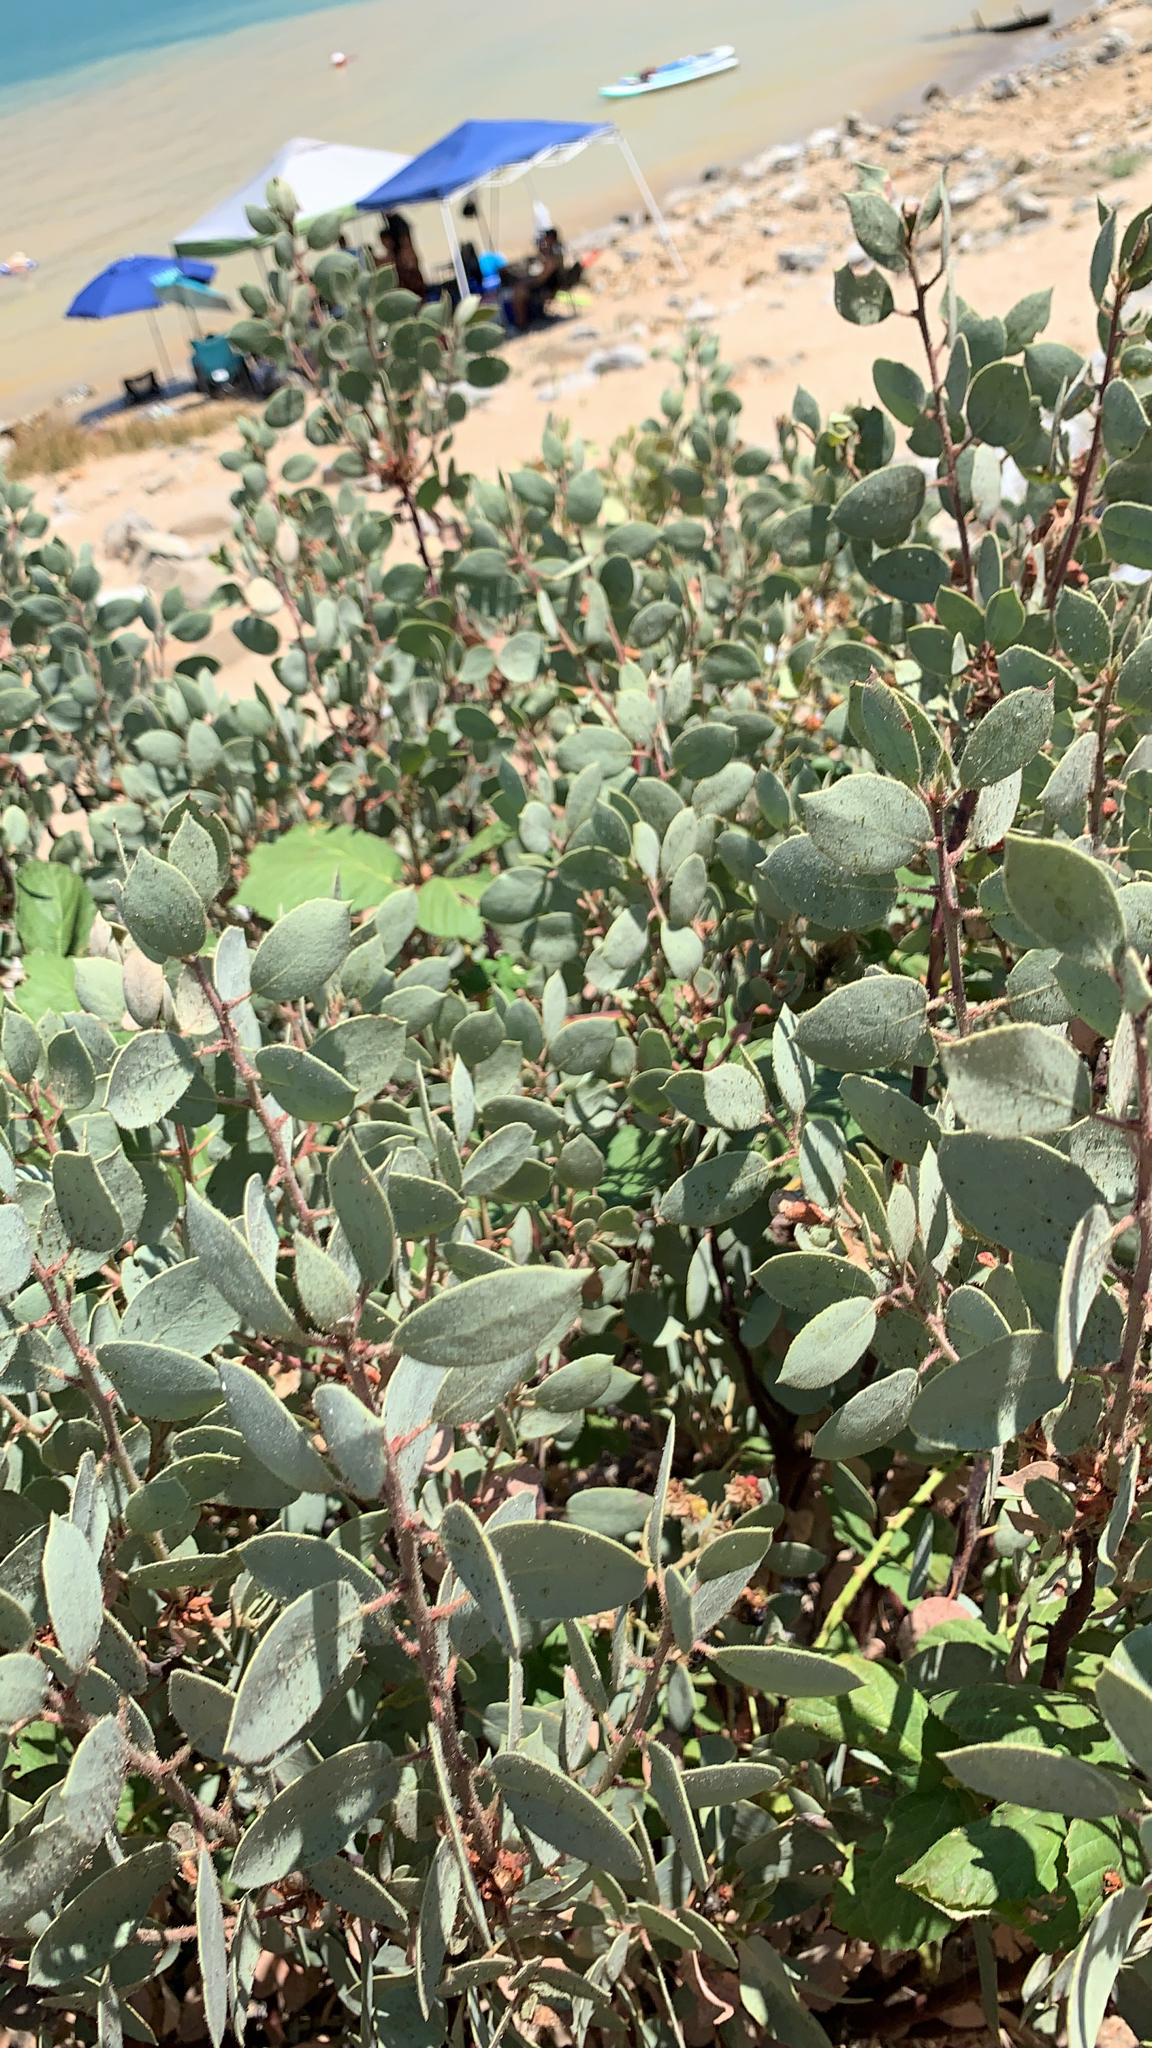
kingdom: Plantae
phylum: Tracheophyta
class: Magnoliopsida
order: Ericales
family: Ericaceae
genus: Arctostaphylos
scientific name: Arctostaphylos viscida
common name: White-leaf manzanita
